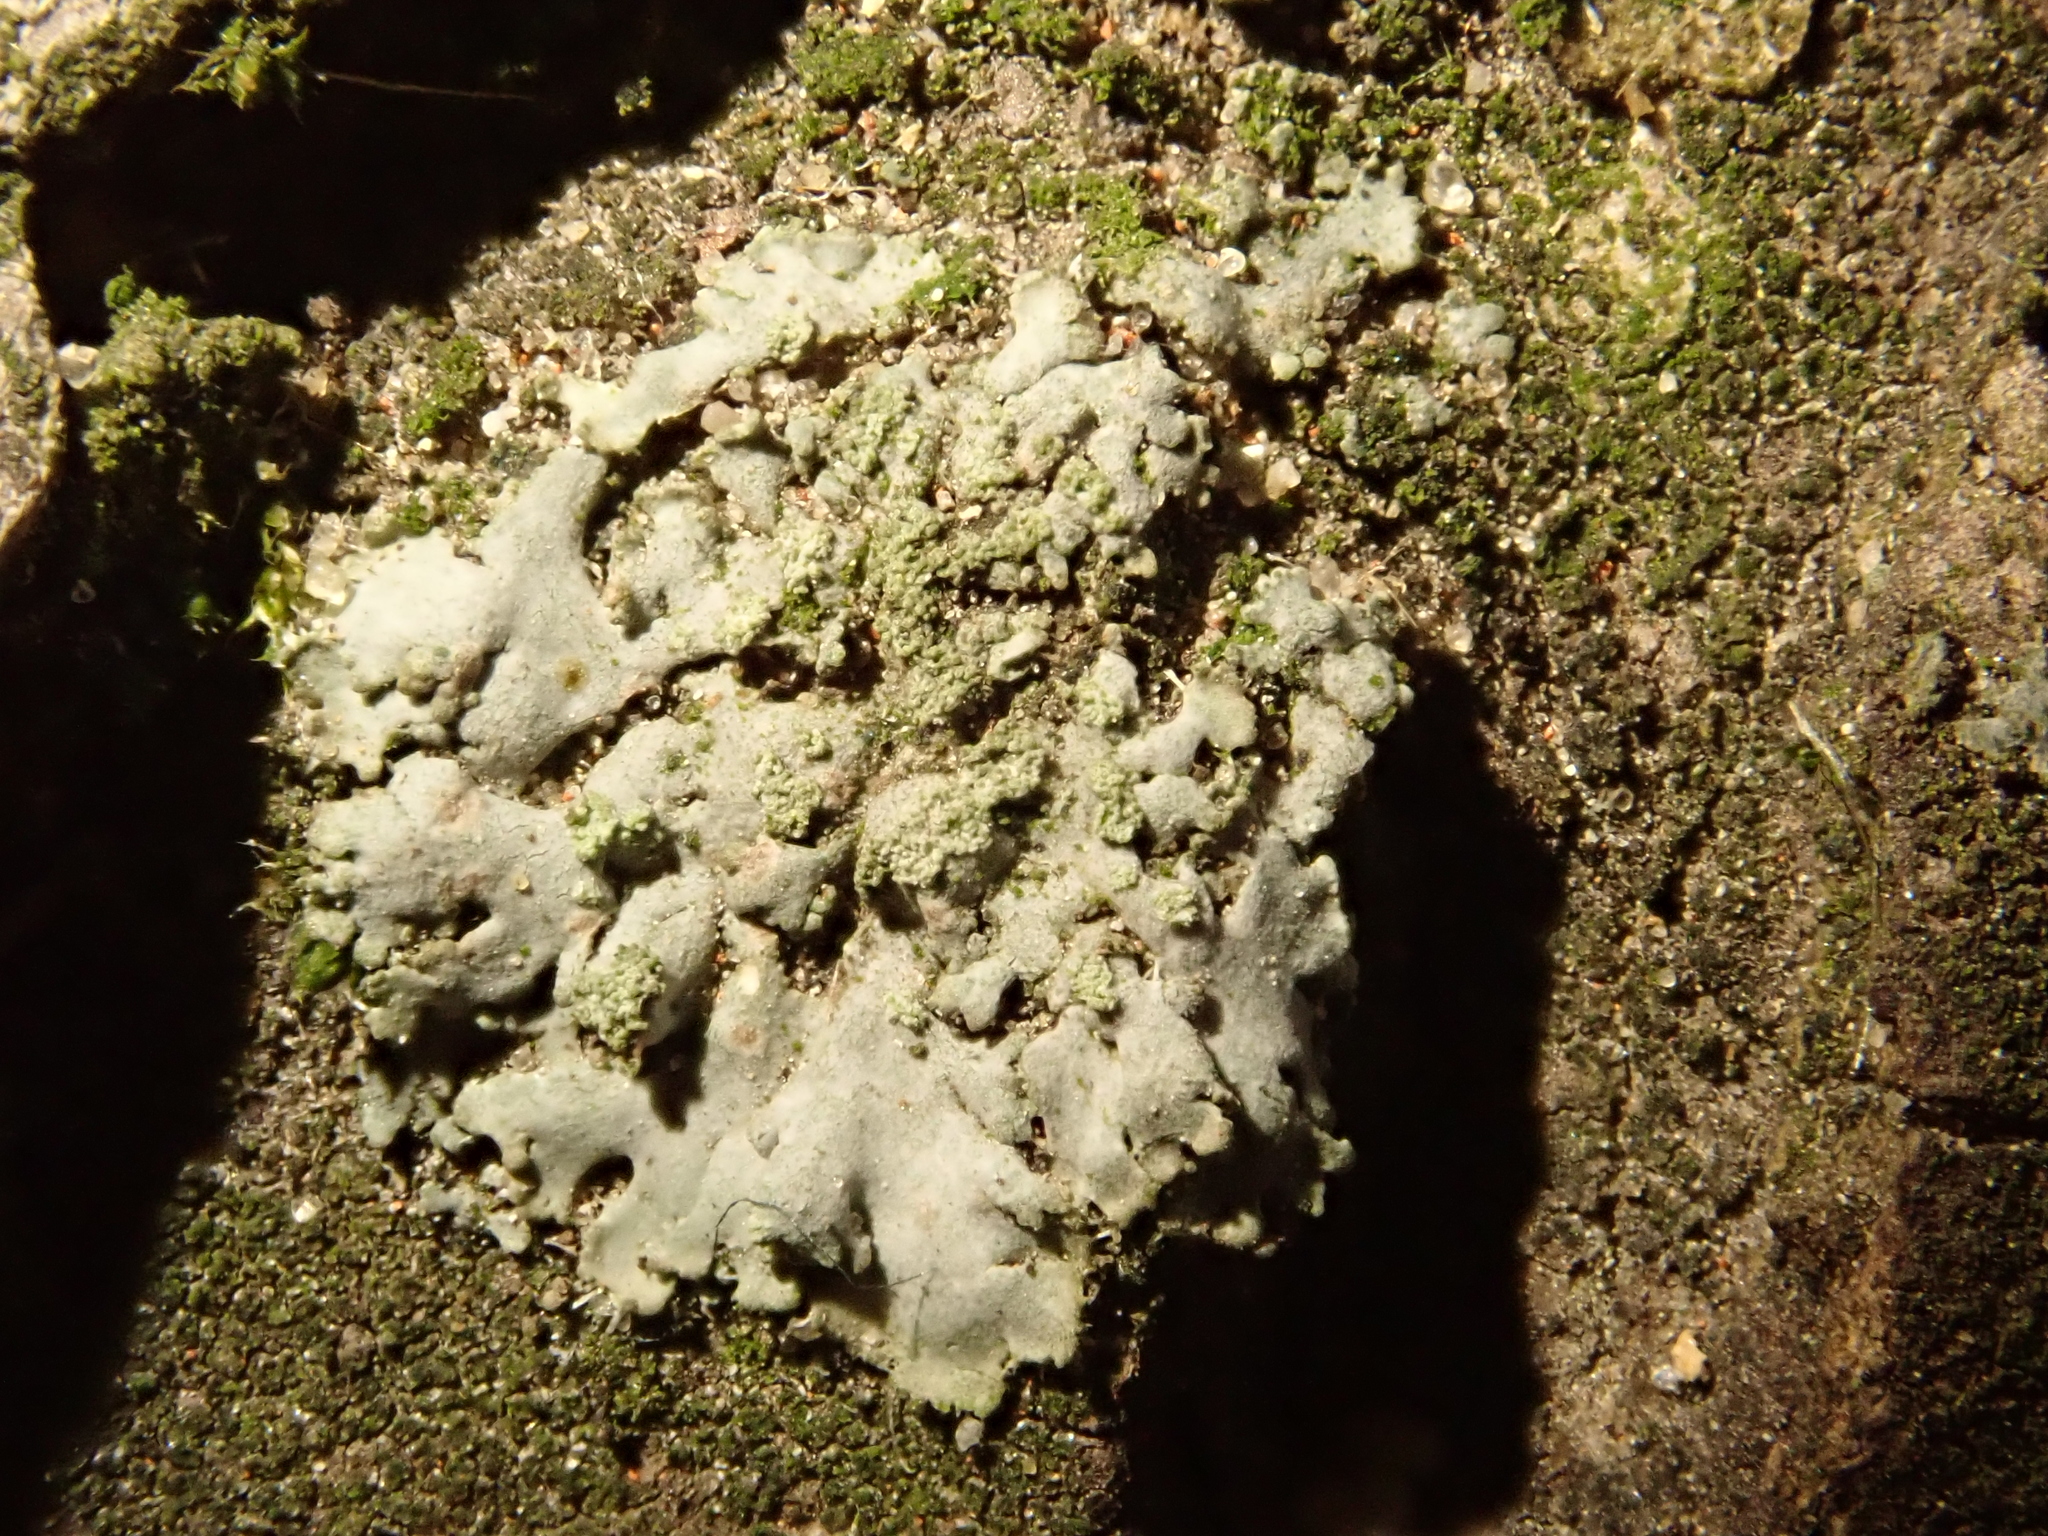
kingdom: Fungi
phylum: Ascomycota
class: Lecanoromycetes
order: Caliciales
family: Physciaceae
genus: Phaeophyscia
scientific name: Phaeophyscia orbicularis
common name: Mealy shadow lichen
